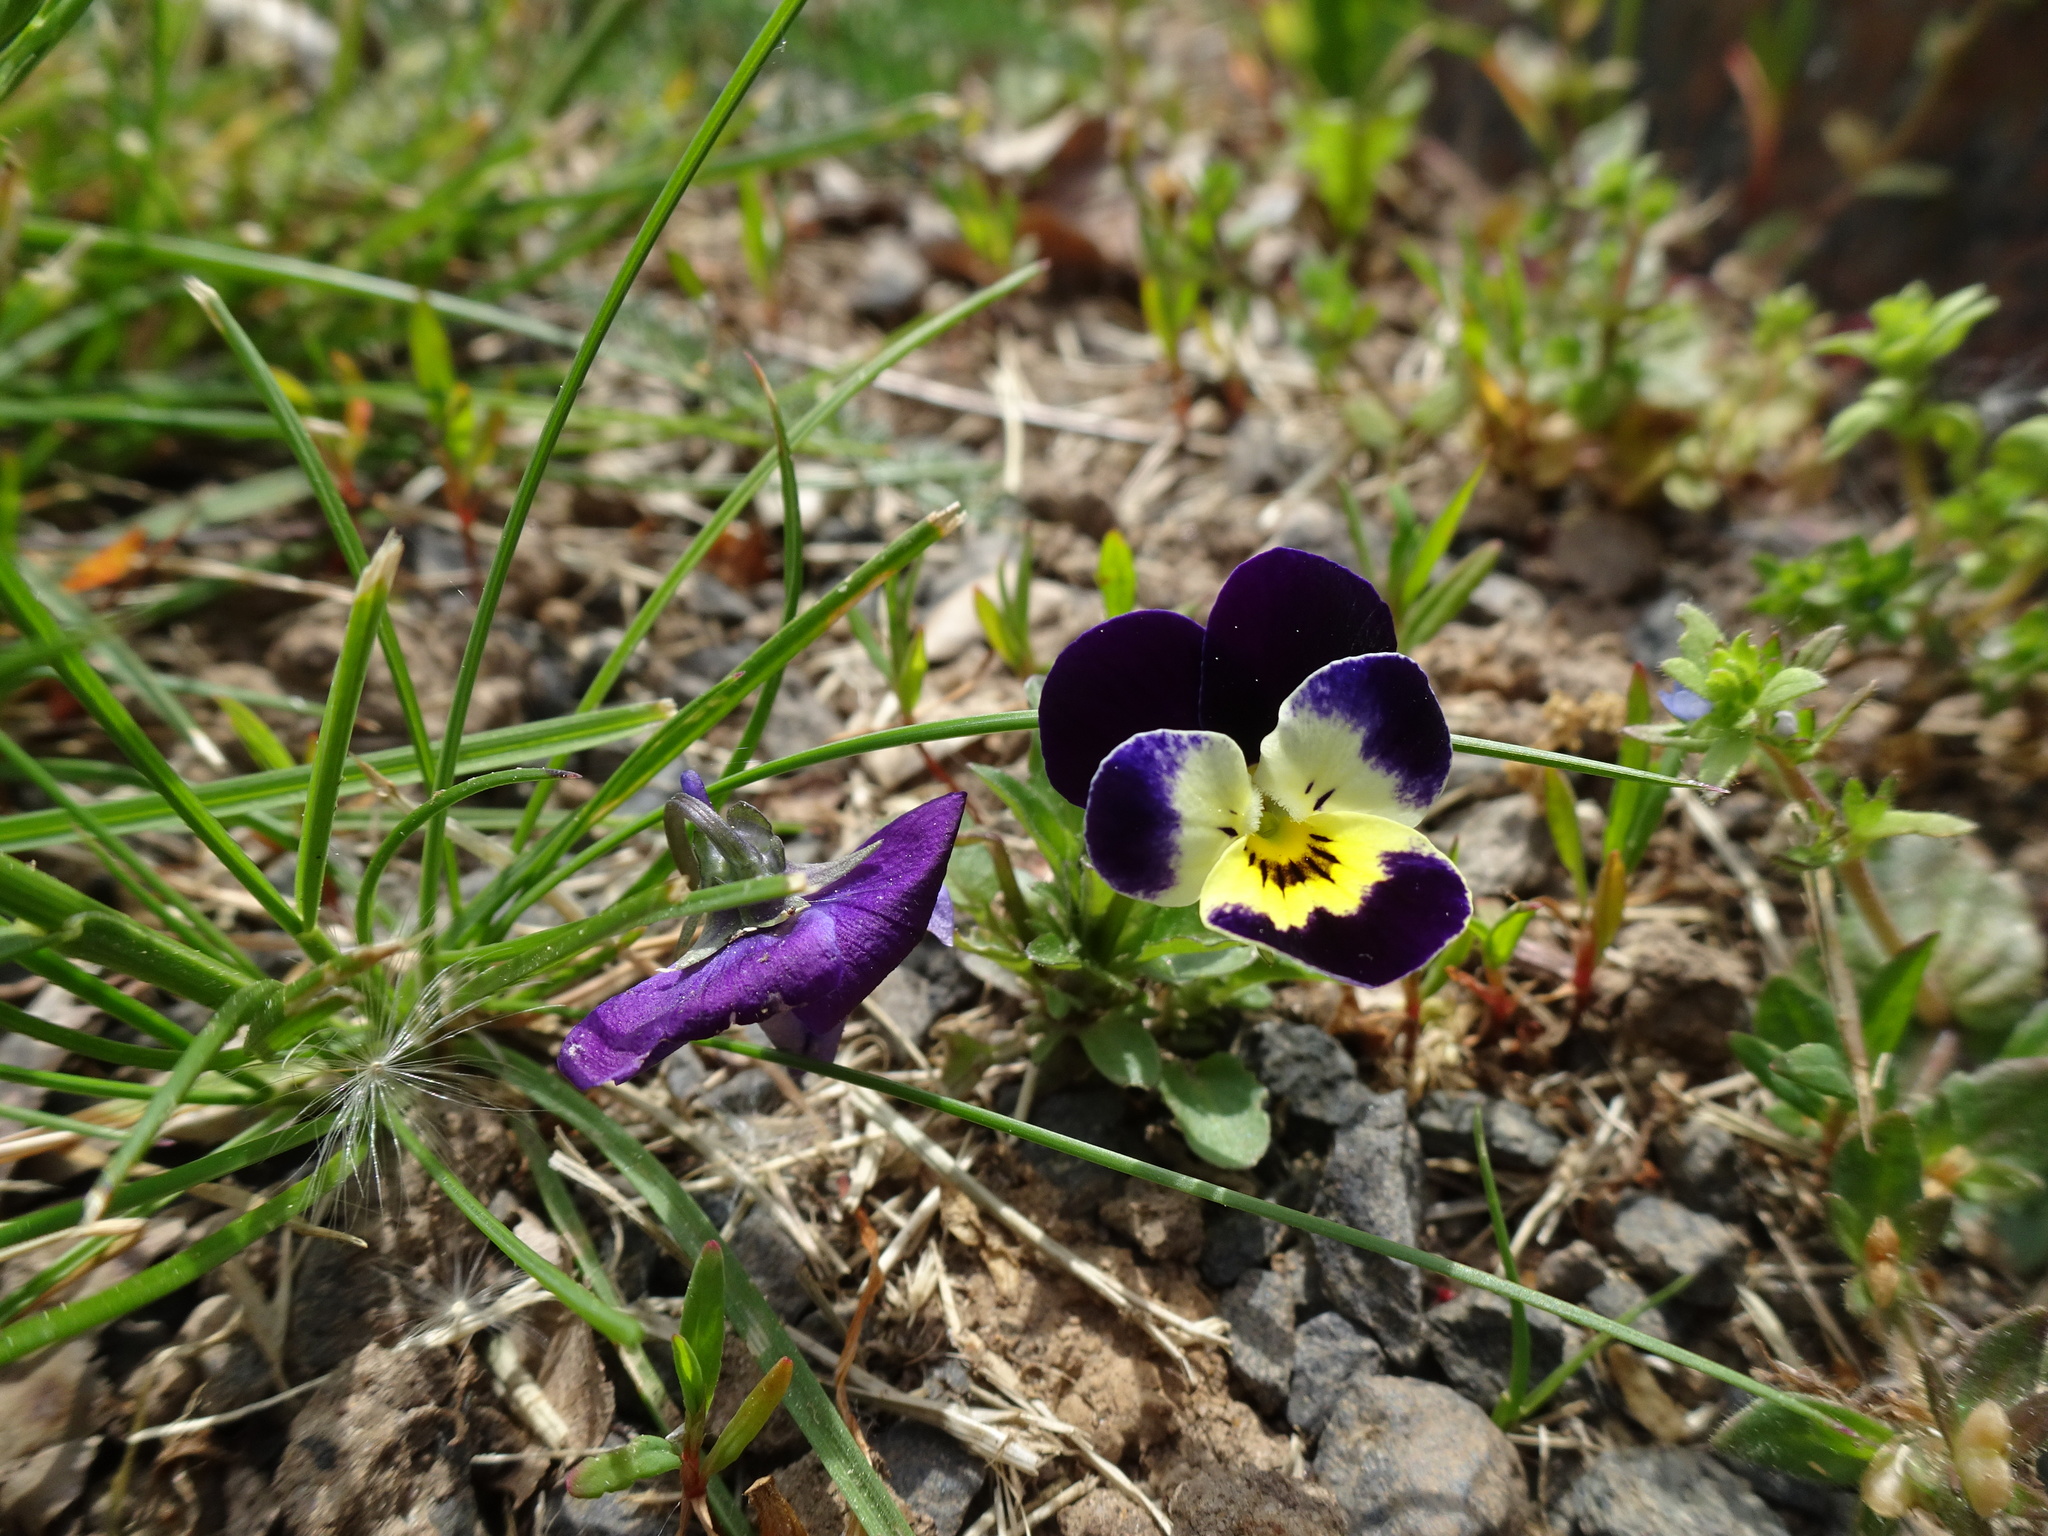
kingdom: Plantae
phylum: Tracheophyta
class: Magnoliopsida
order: Malpighiales
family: Violaceae
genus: Viola
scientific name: Viola wittrockiana
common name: Garden pansy
